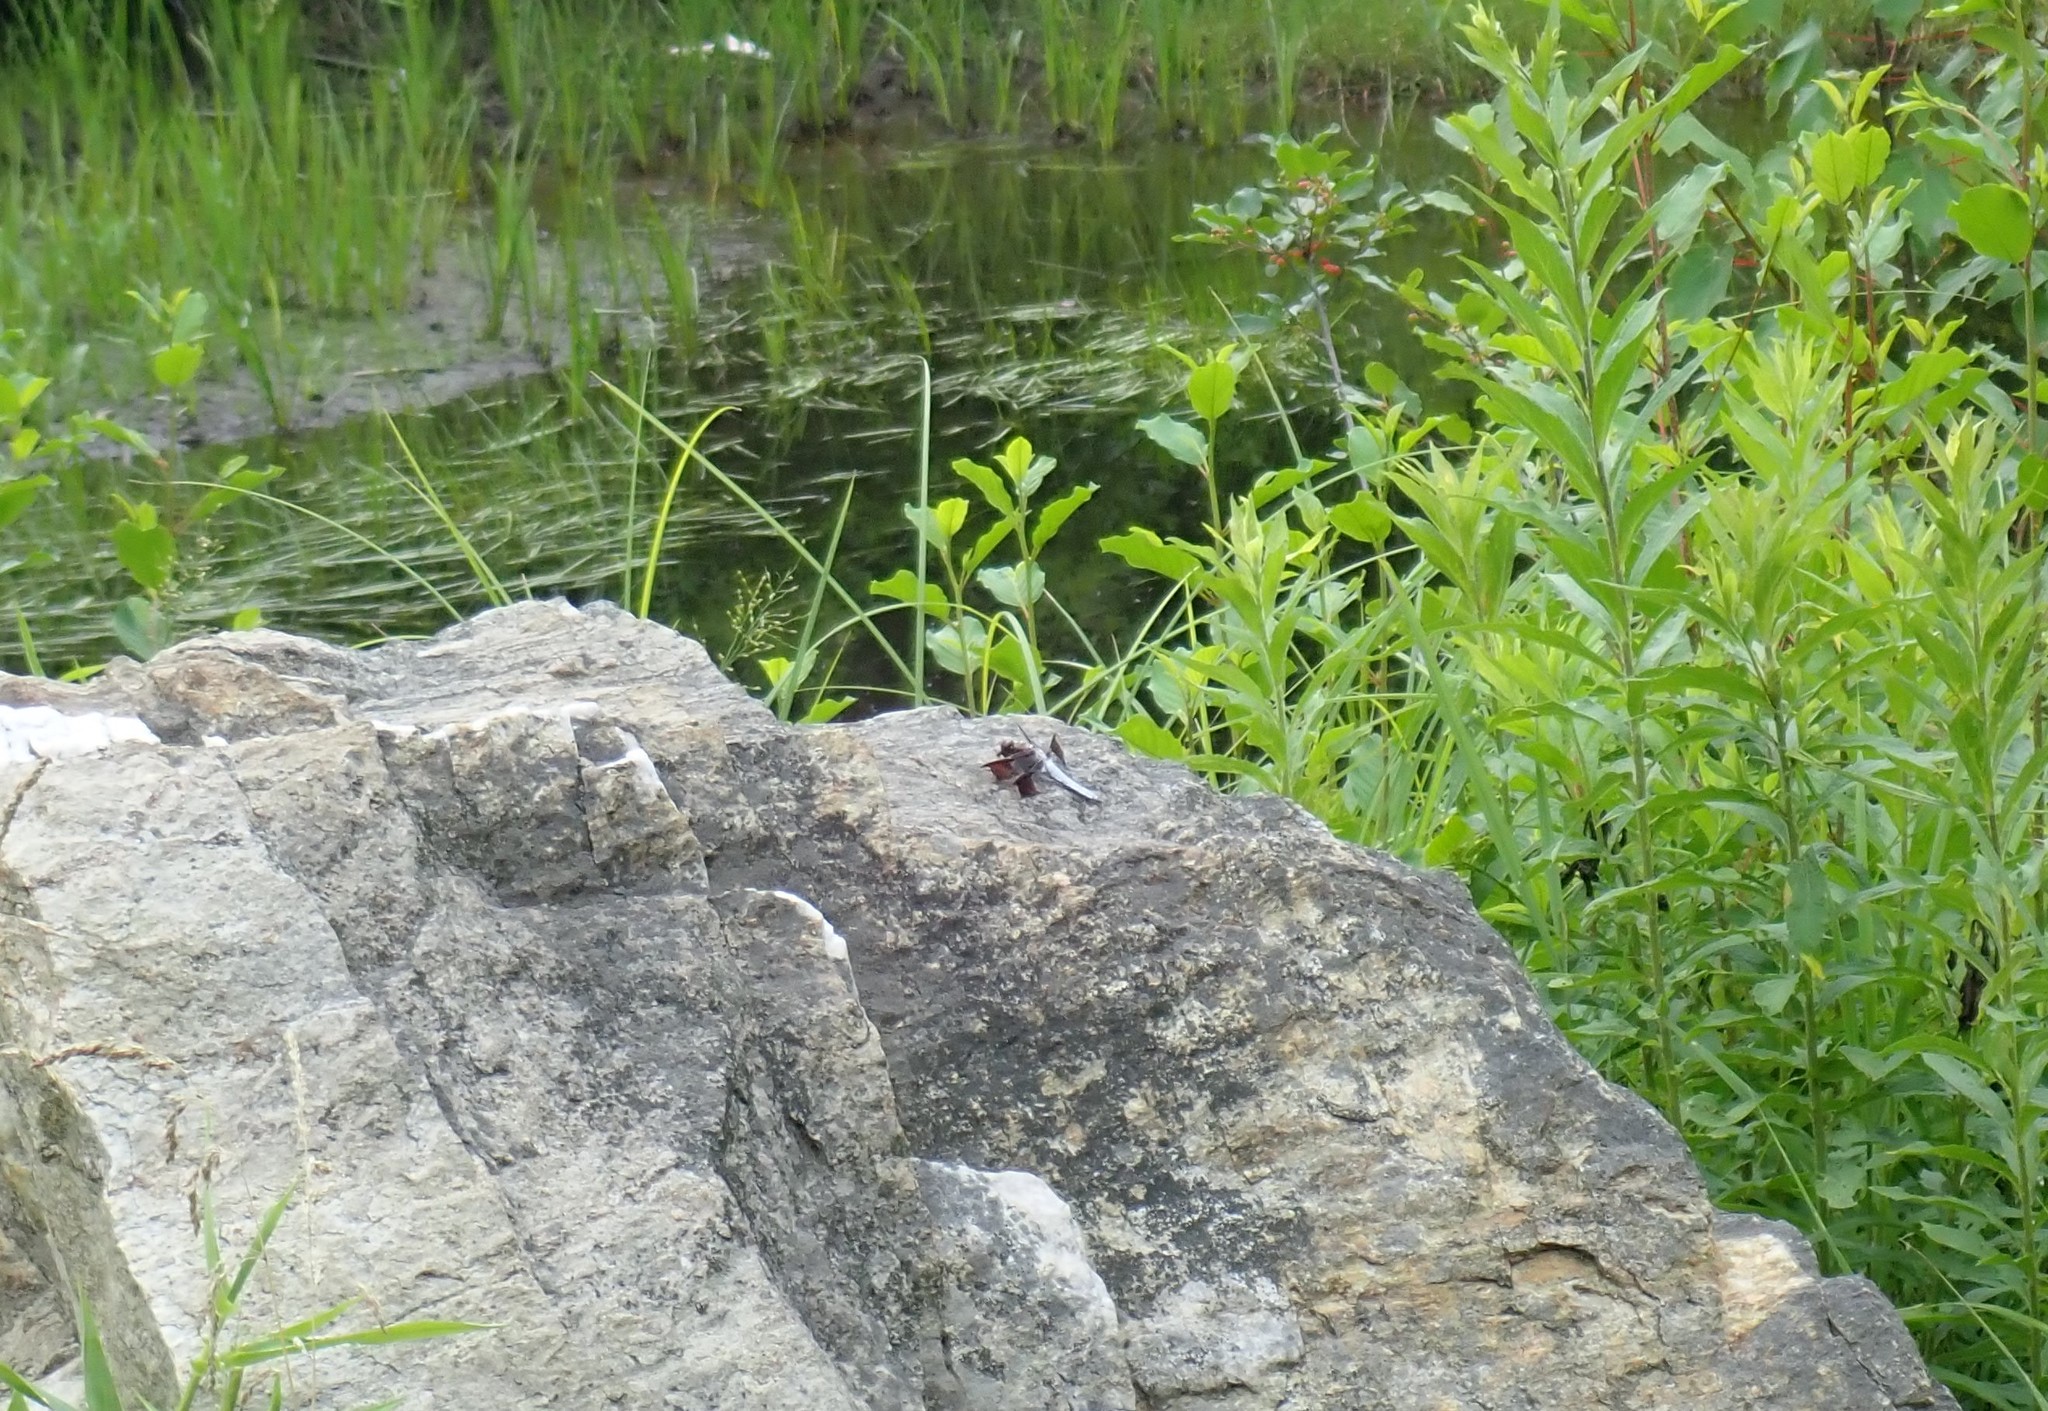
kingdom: Animalia
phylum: Arthropoda
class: Insecta
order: Odonata
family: Libellulidae
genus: Plathemis
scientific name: Plathemis lydia
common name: Common whitetail
